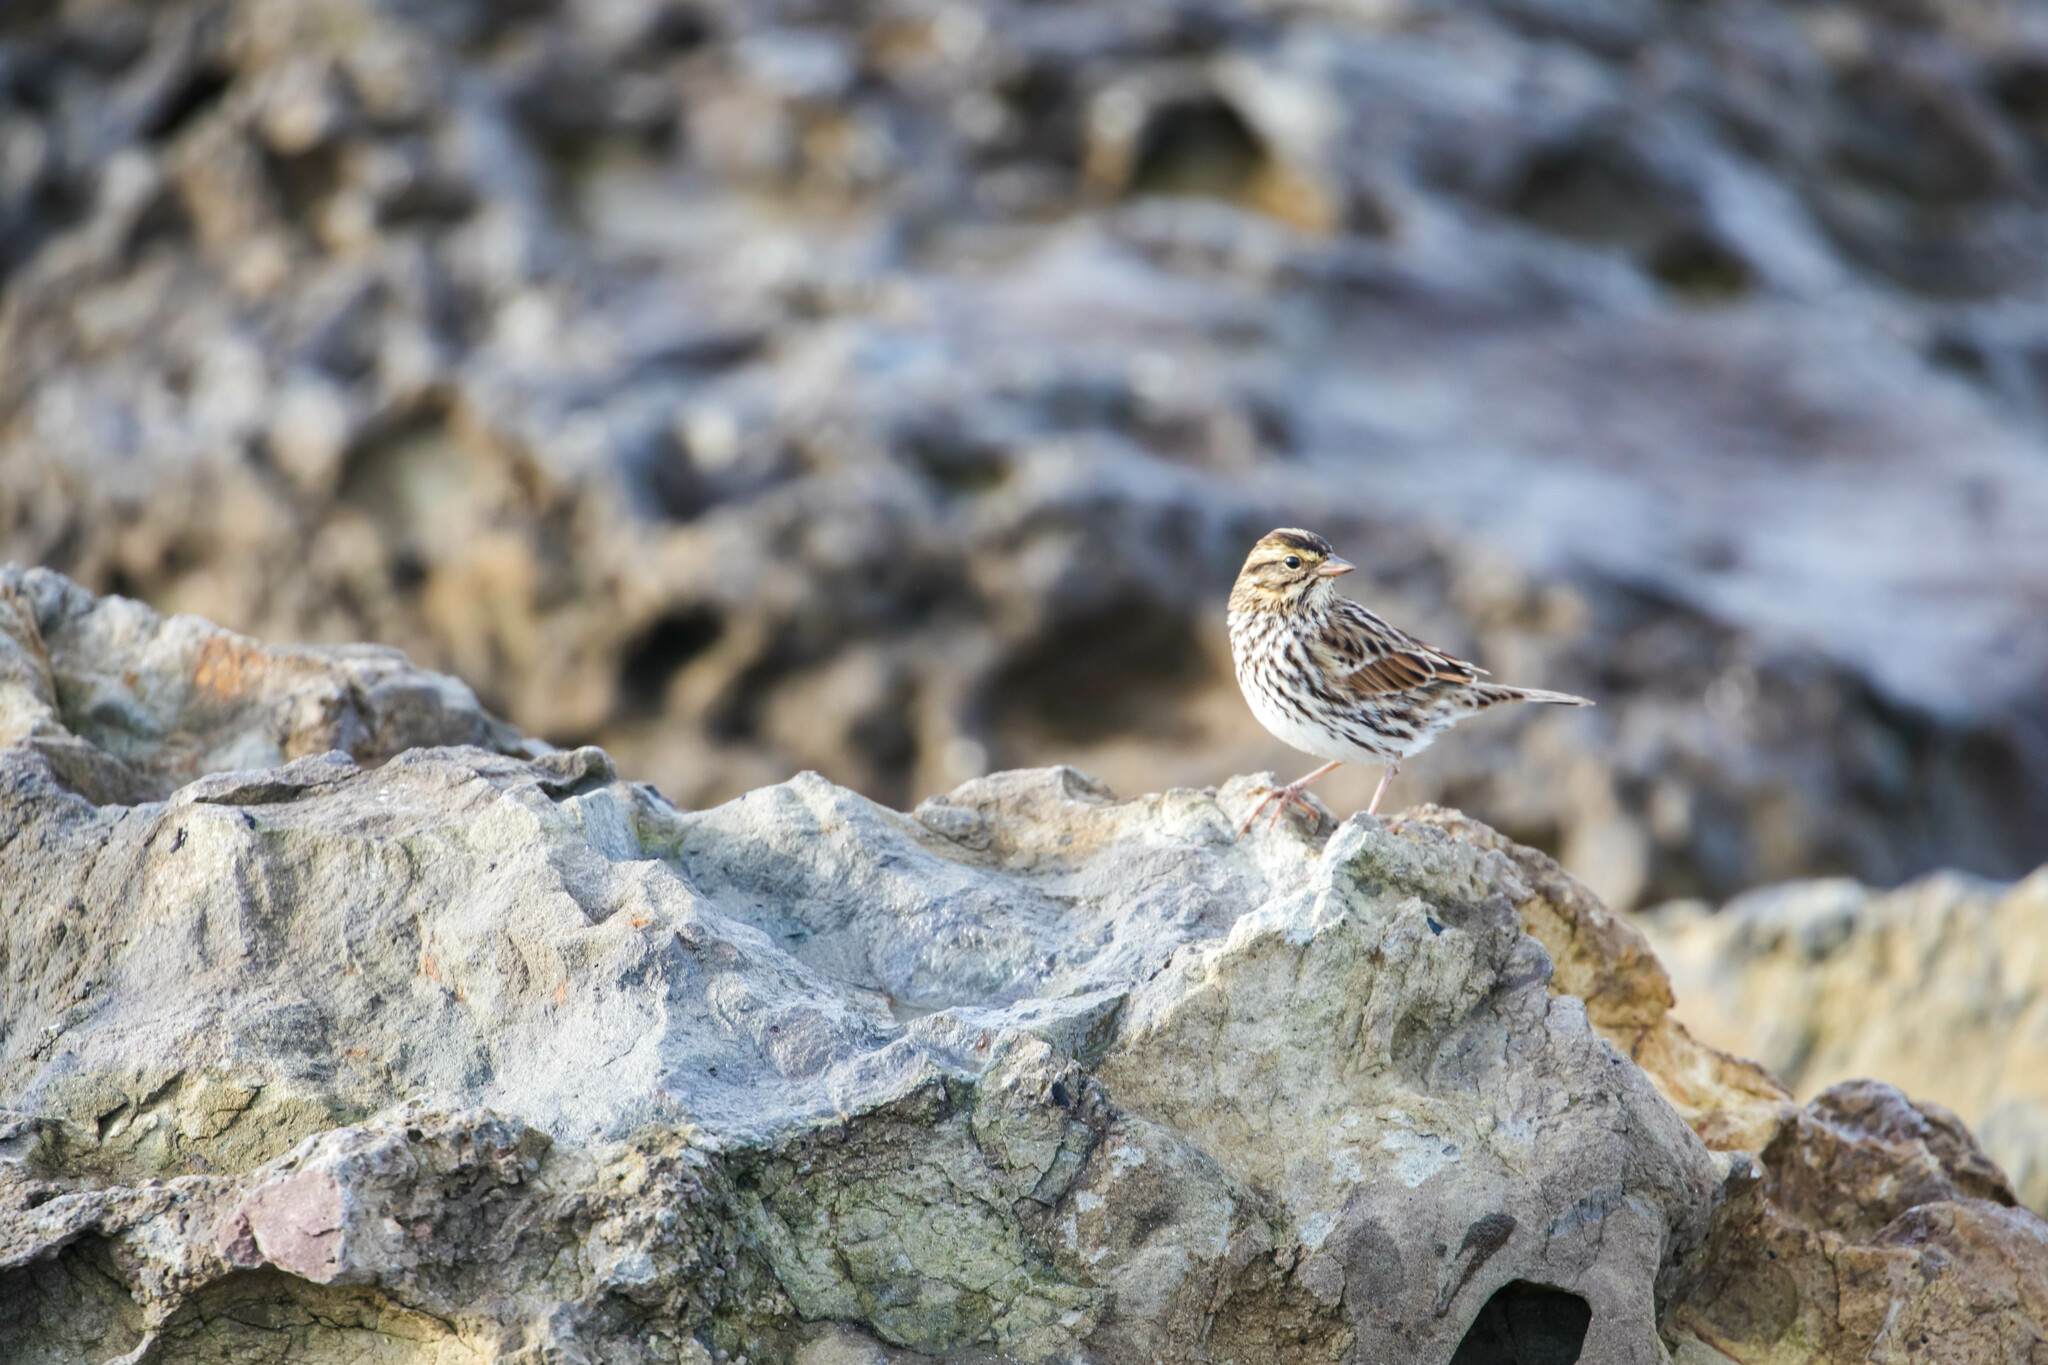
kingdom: Animalia
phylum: Chordata
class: Aves
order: Passeriformes
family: Passerellidae
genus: Passerculus
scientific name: Passerculus sandwichensis
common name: Savannah sparrow
